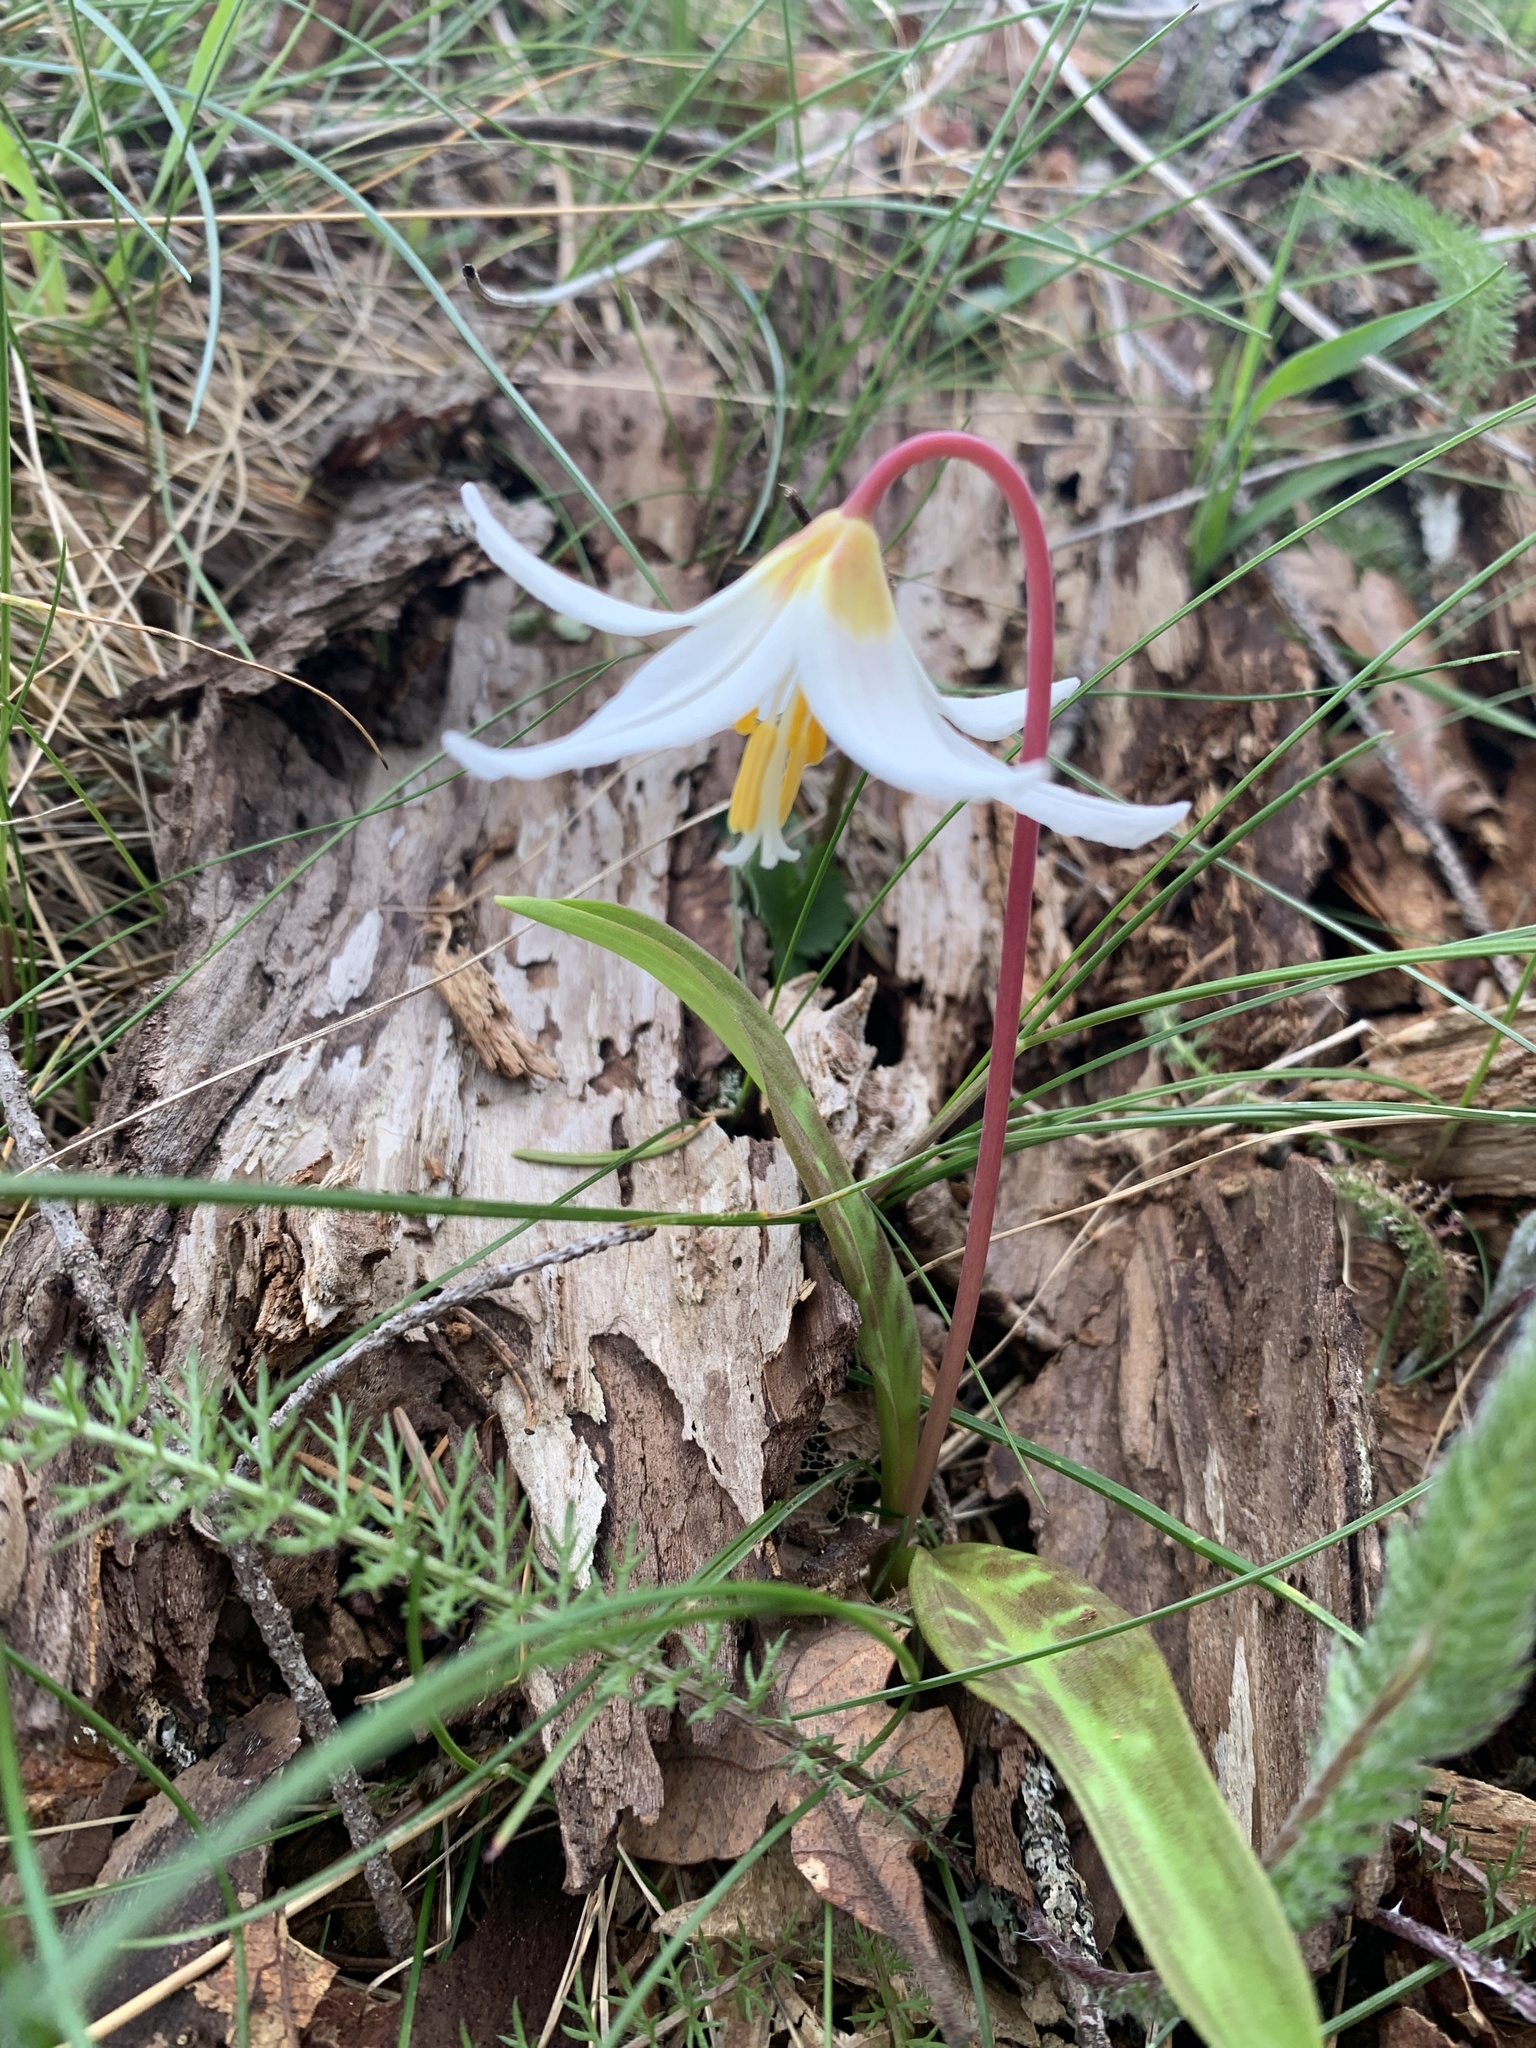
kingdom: Plantae
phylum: Tracheophyta
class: Liliopsida
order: Liliales
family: Liliaceae
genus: Erythronium
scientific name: Erythronium oregonum
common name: Giant adder's-tongue
